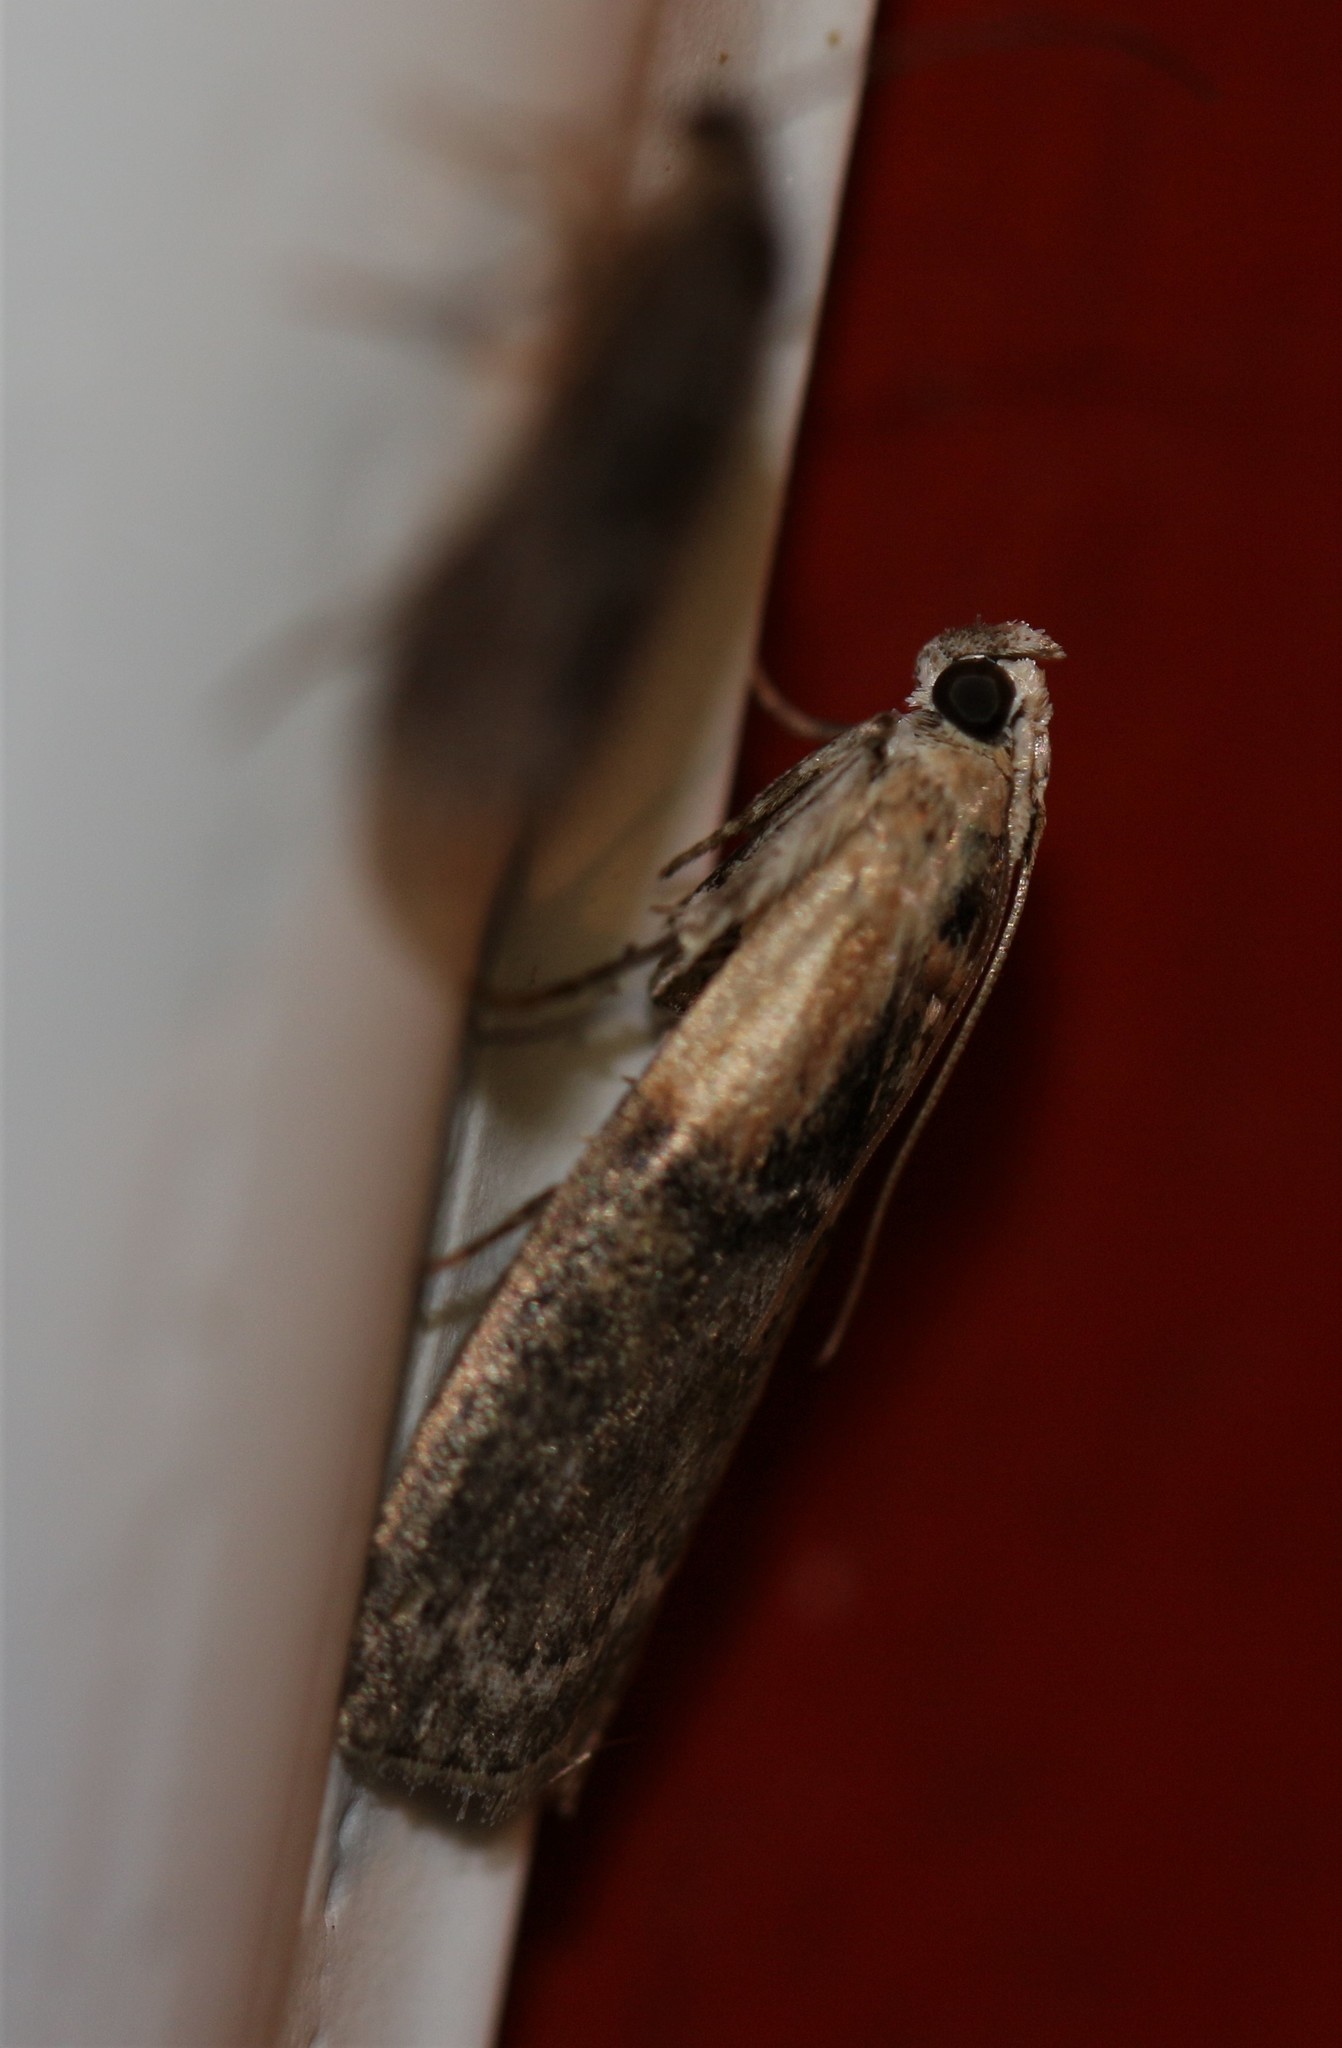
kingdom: Animalia
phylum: Arthropoda
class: Insecta
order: Lepidoptera
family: Pyralidae
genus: Sciota
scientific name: Sciota basilaris
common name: Yellow-shouldered leafroller
